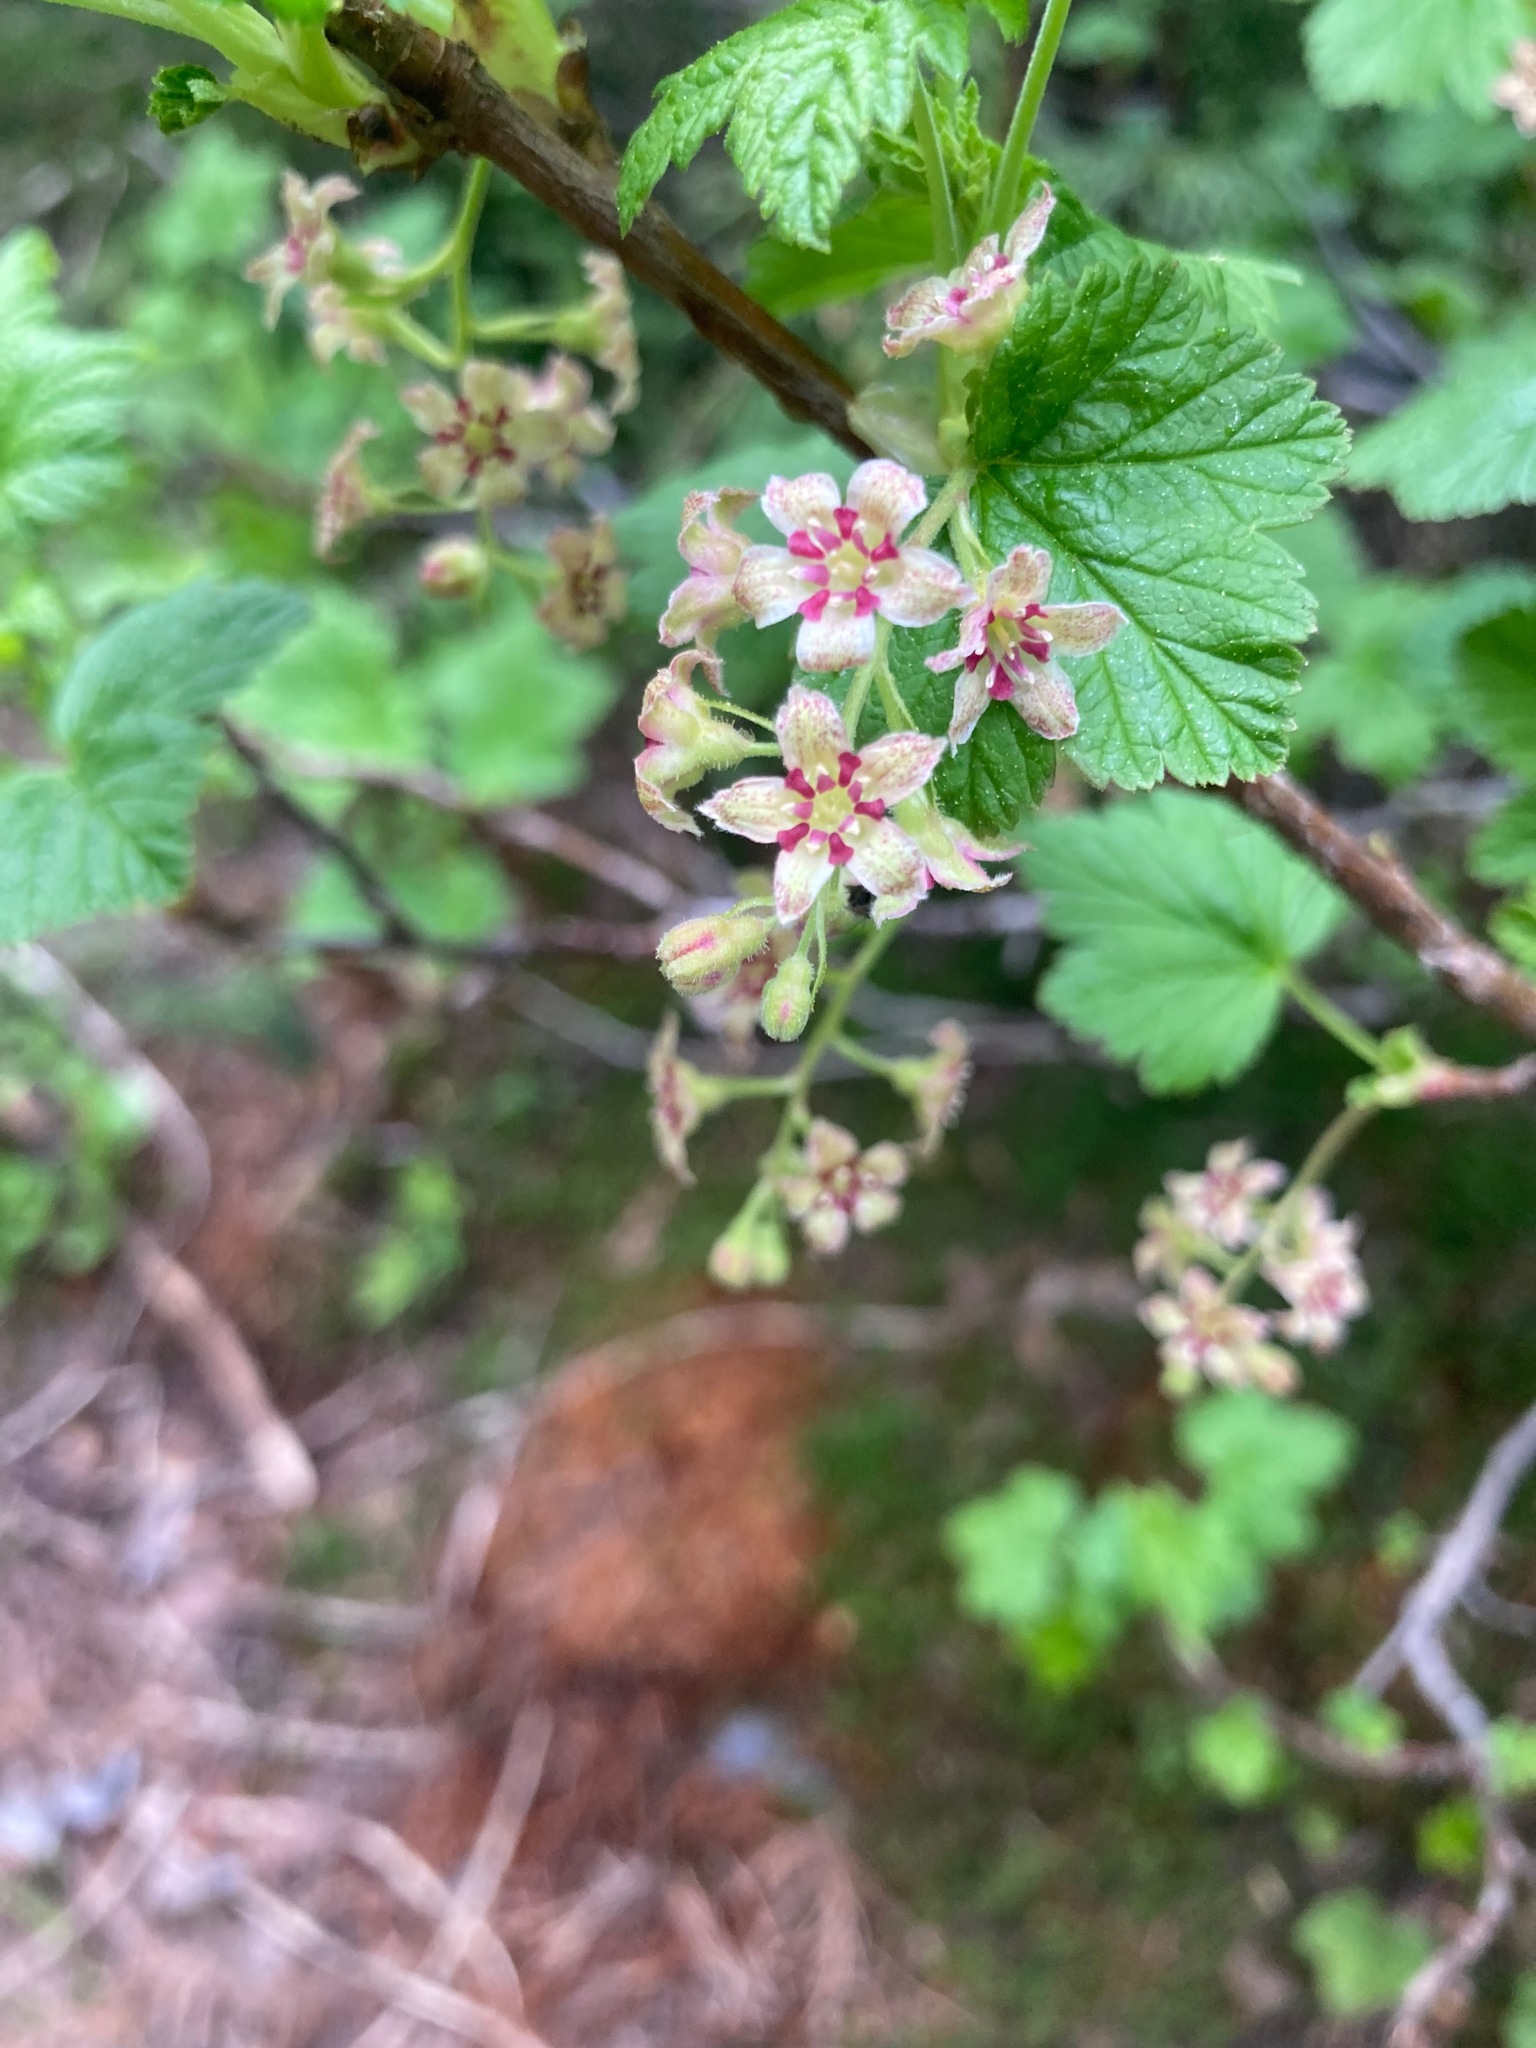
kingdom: Plantae
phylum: Tracheophyta
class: Magnoliopsida
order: Saxifragales
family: Grossulariaceae
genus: Ribes
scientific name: Ribes acerifolium
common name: Maple-leaved black currant
